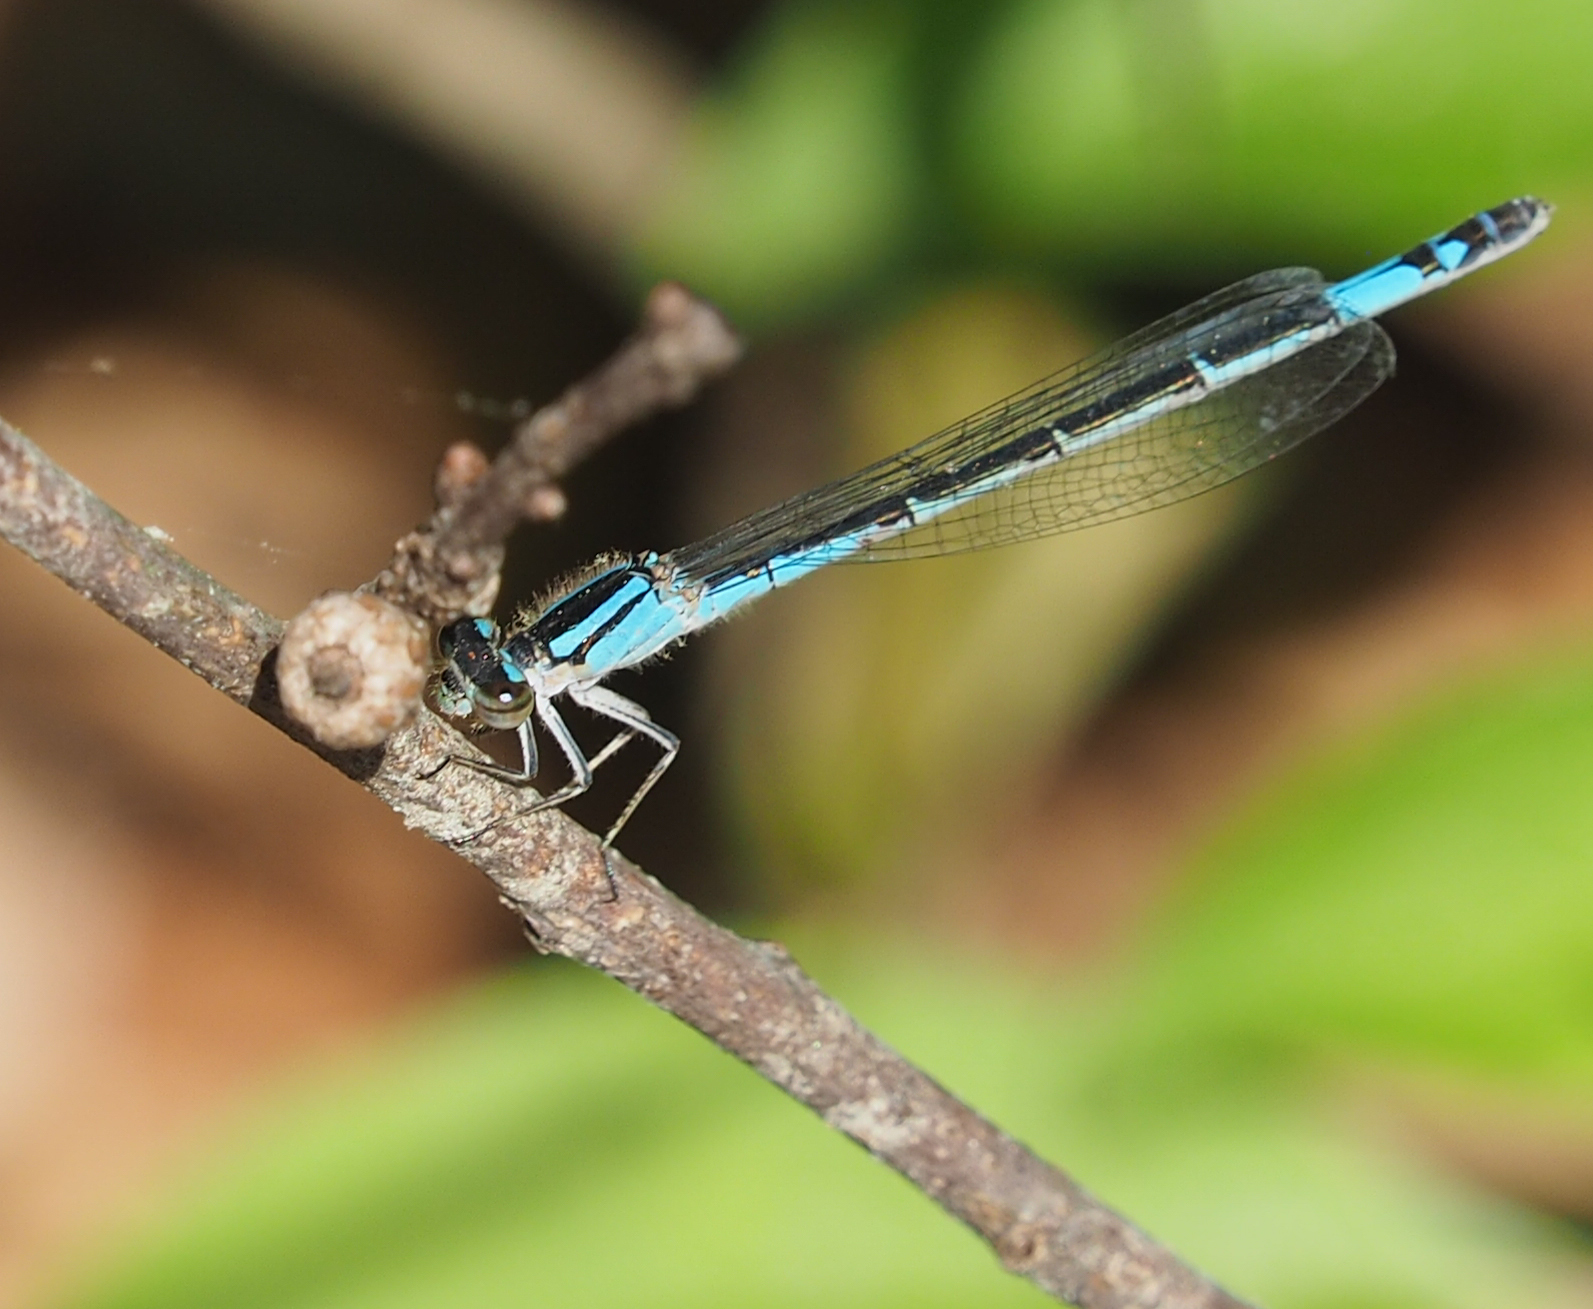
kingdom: Animalia
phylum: Arthropoda
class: Insecta
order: Odonata
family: Coenagrionidae
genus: Enallagma
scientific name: Enallagma aspersum
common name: Azure bluet
